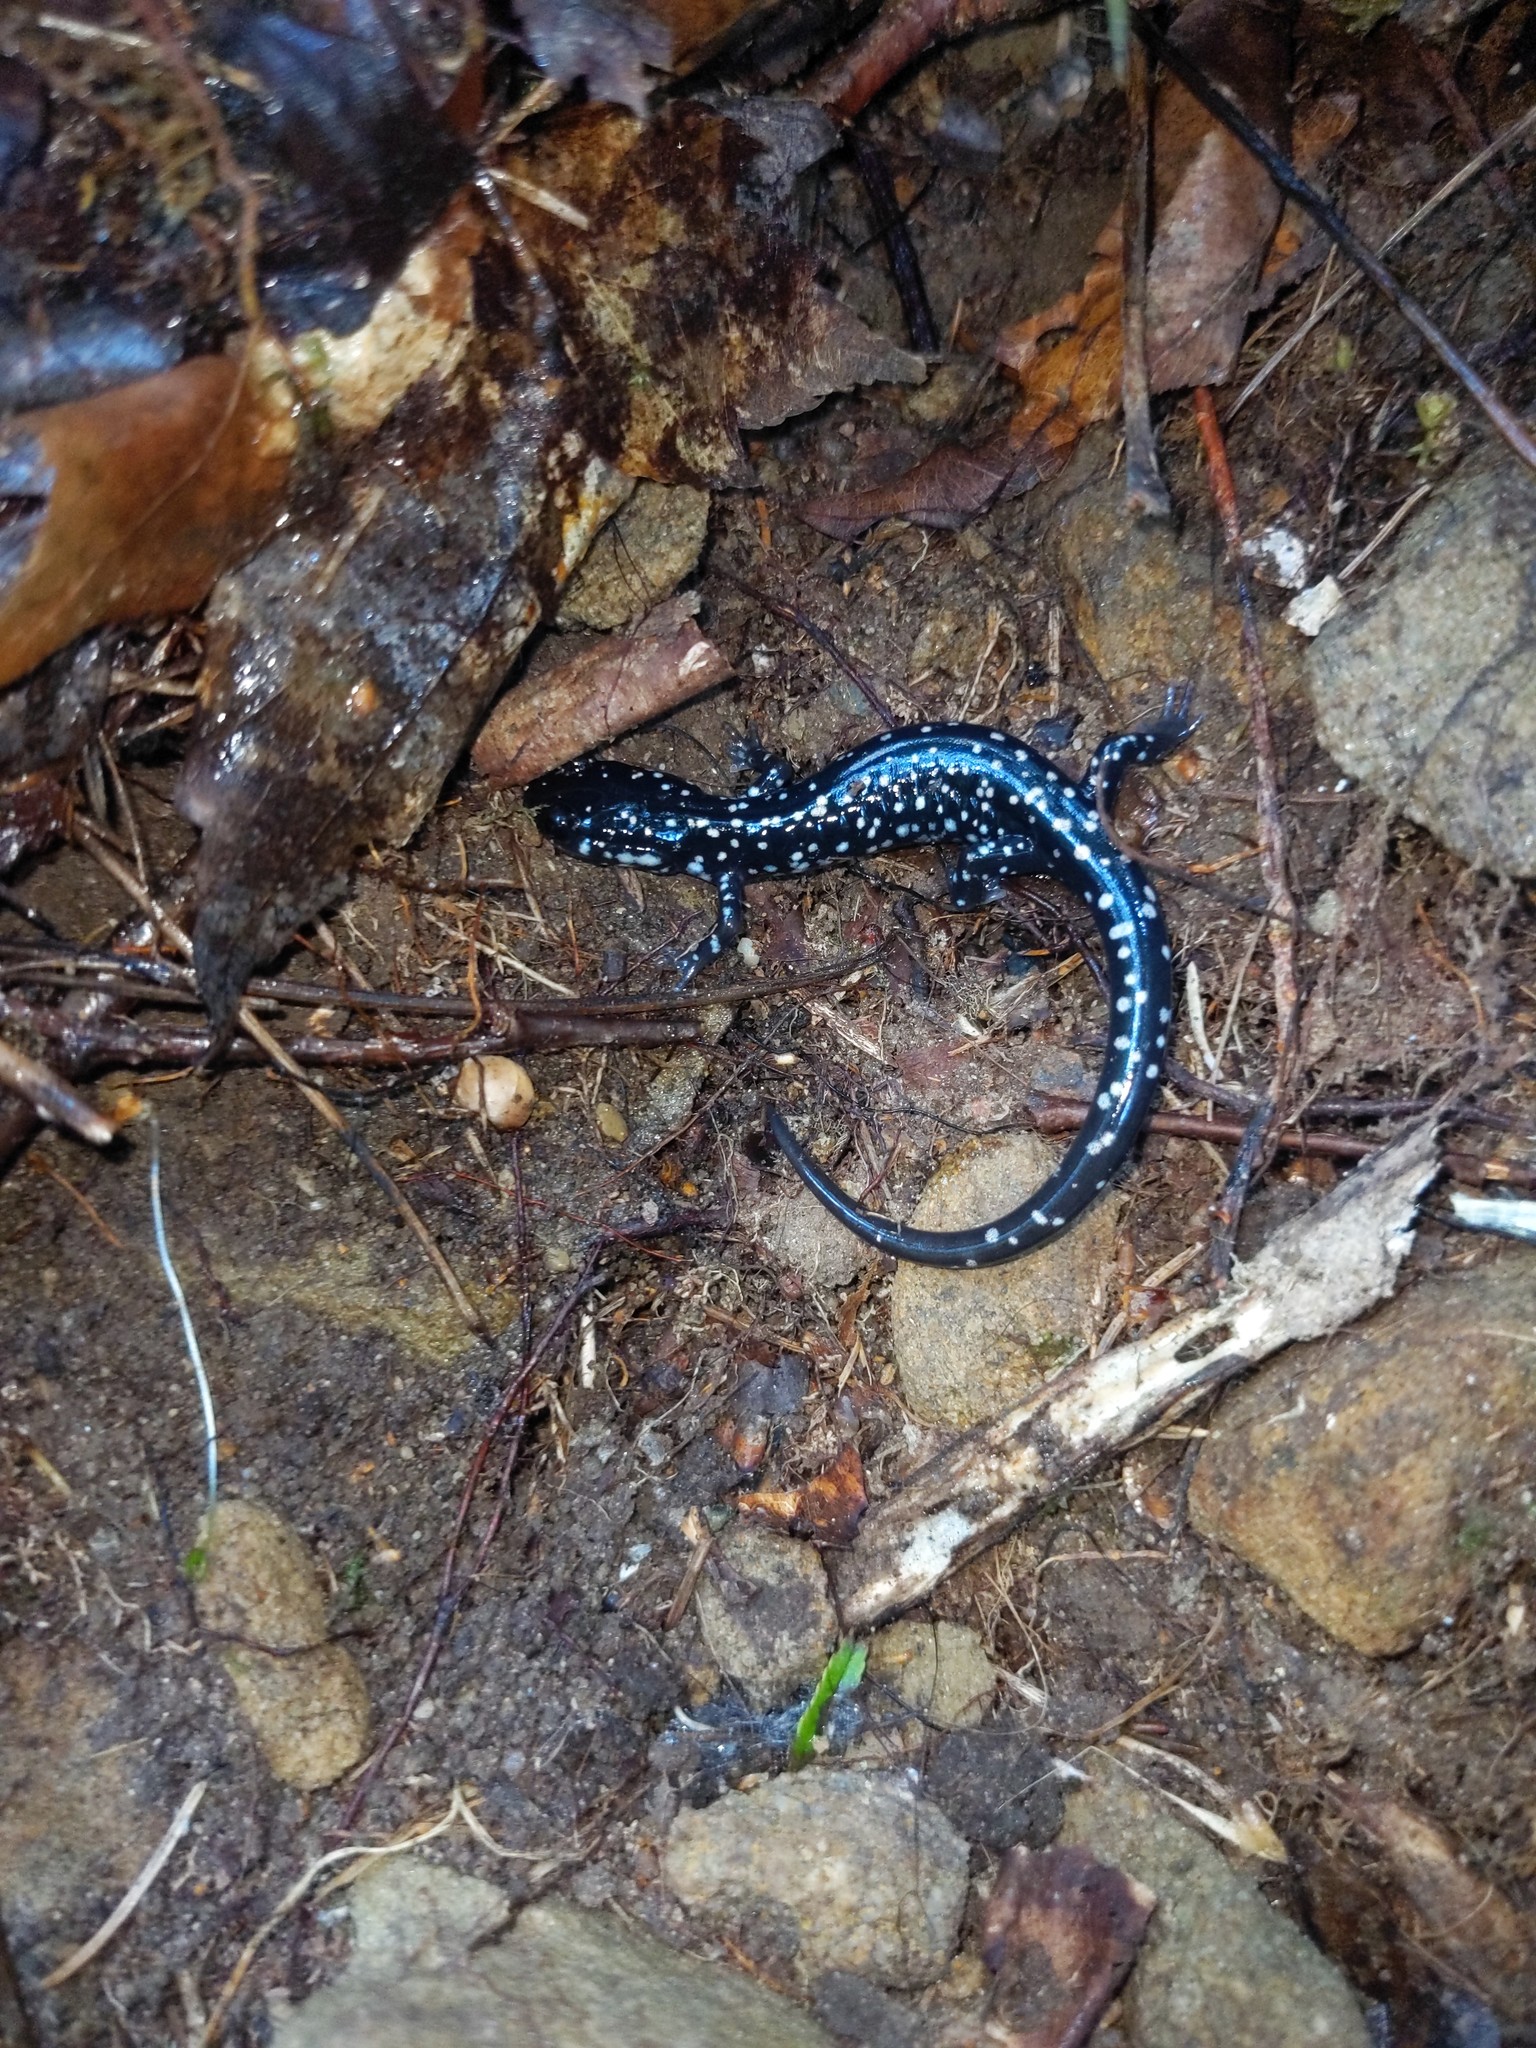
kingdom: Animalia
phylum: Chordata
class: Amphibia
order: Caudata
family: Plethodontidae
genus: Plethodon
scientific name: Plethodon glutinosus
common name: Northern slimy salamander
